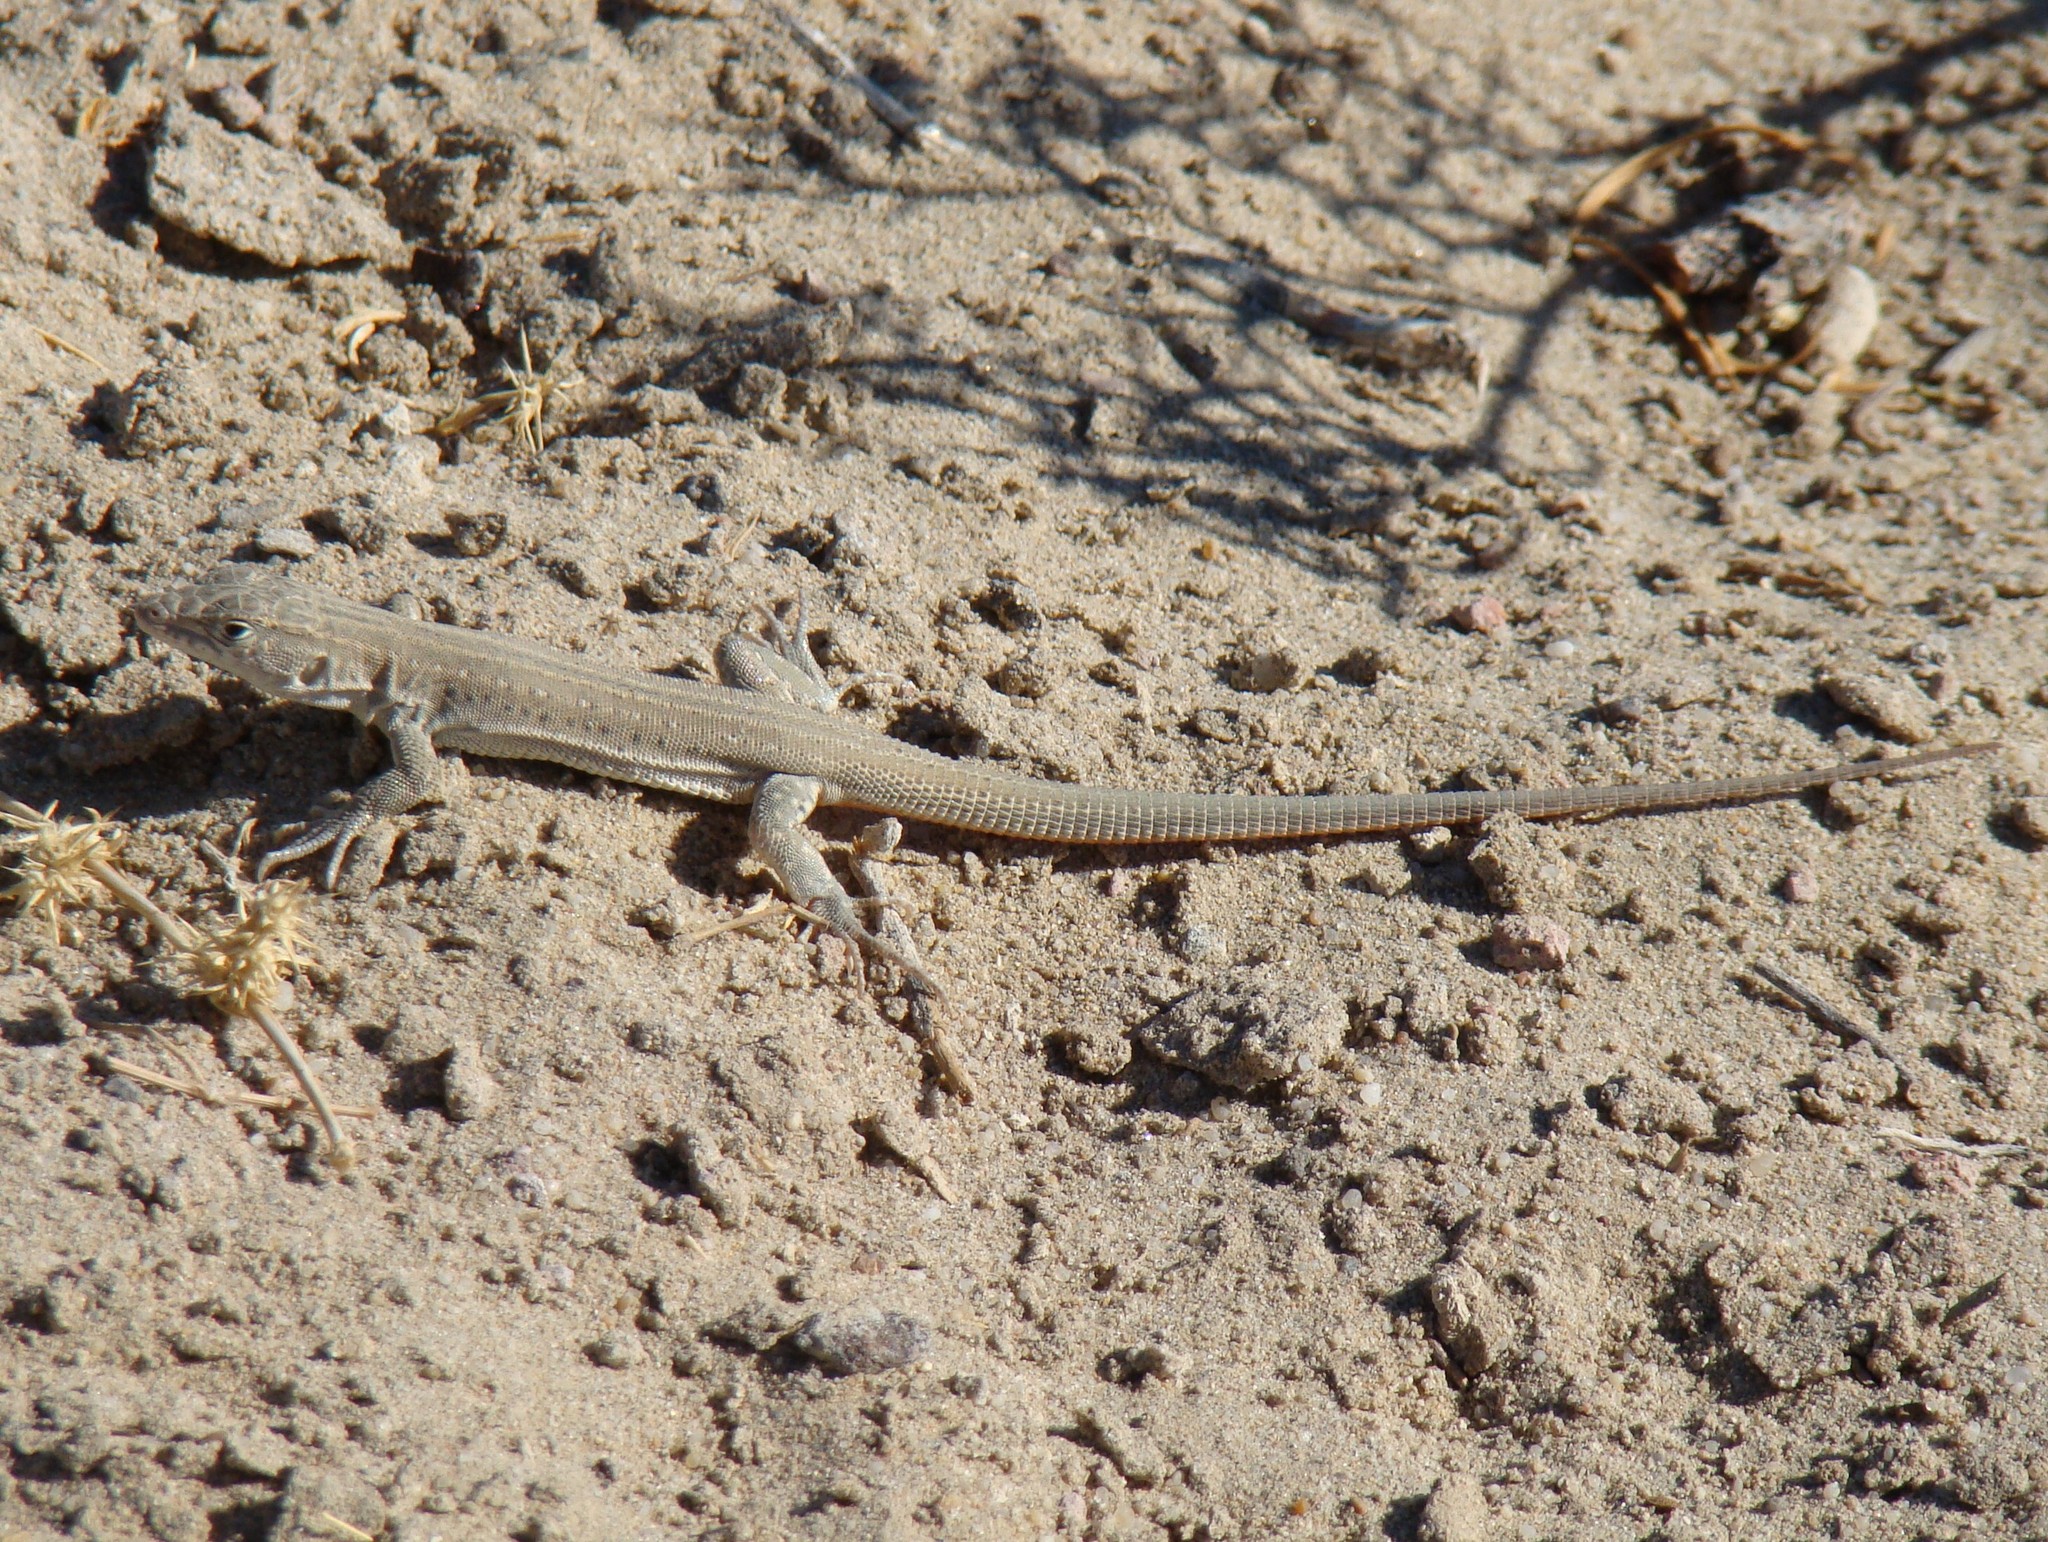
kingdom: Animalia
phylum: Chordata
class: Squamata
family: Lacertidae
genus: Eremias
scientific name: Eremias velox
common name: Central asian racerunner
